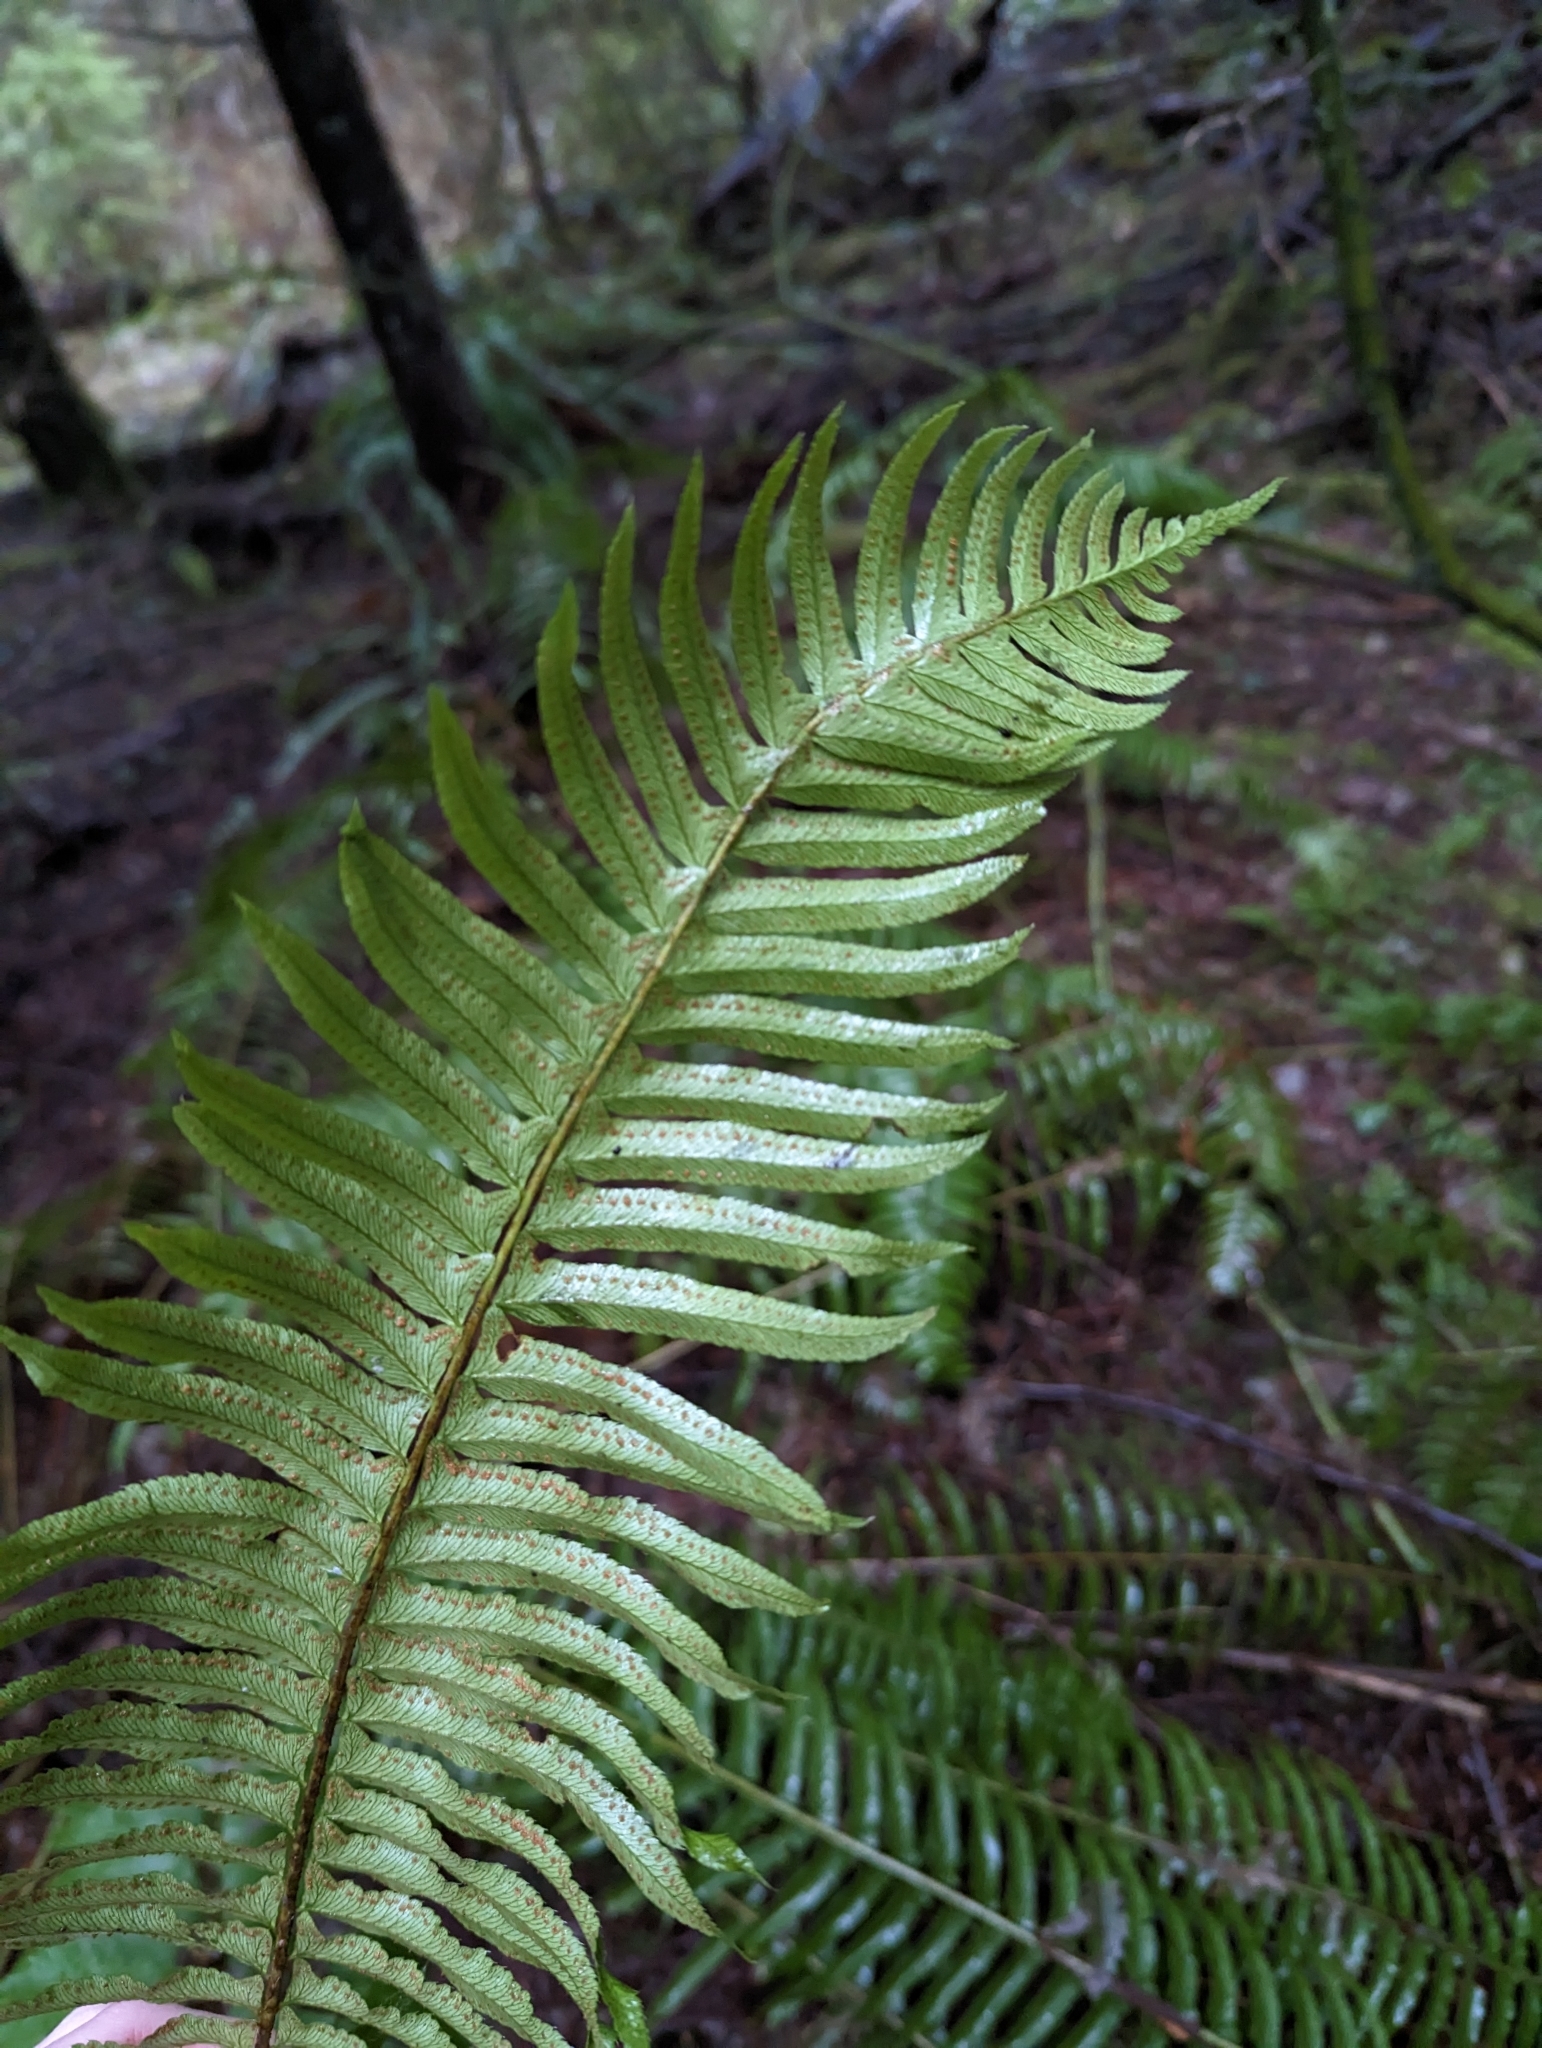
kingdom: Plantae
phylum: Tracheophyta
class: Polypodiopsida
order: Polypodiales
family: Dryopteridaceae
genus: Polystichum
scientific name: Polystichum munitum
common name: Western sword-fern
